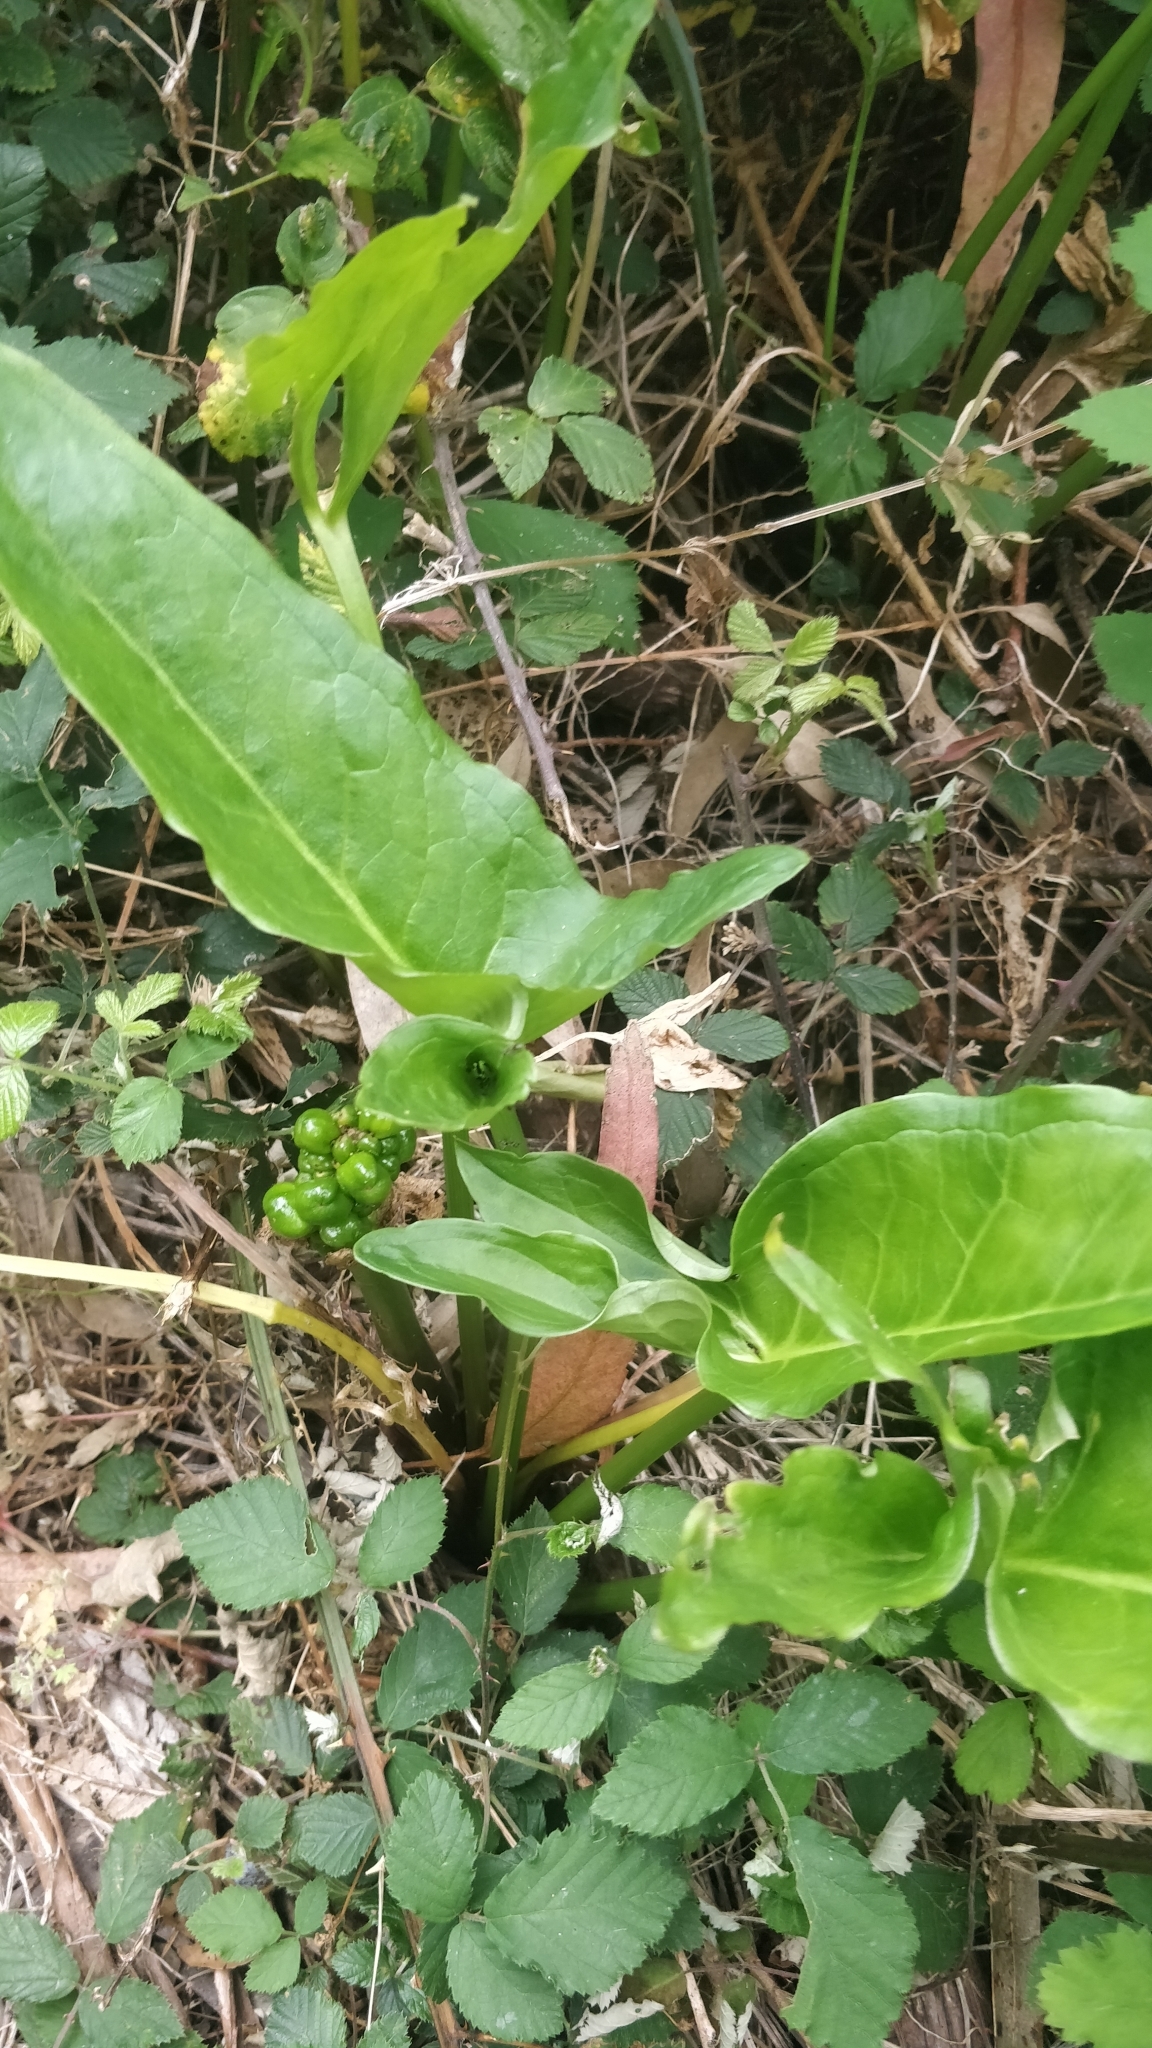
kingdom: Plantae
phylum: Tracheophyta
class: Liliopsida
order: Alismatales
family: Araceae
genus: Zantedeschia
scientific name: Zantedeschia aethiopica
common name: Altar-lily
